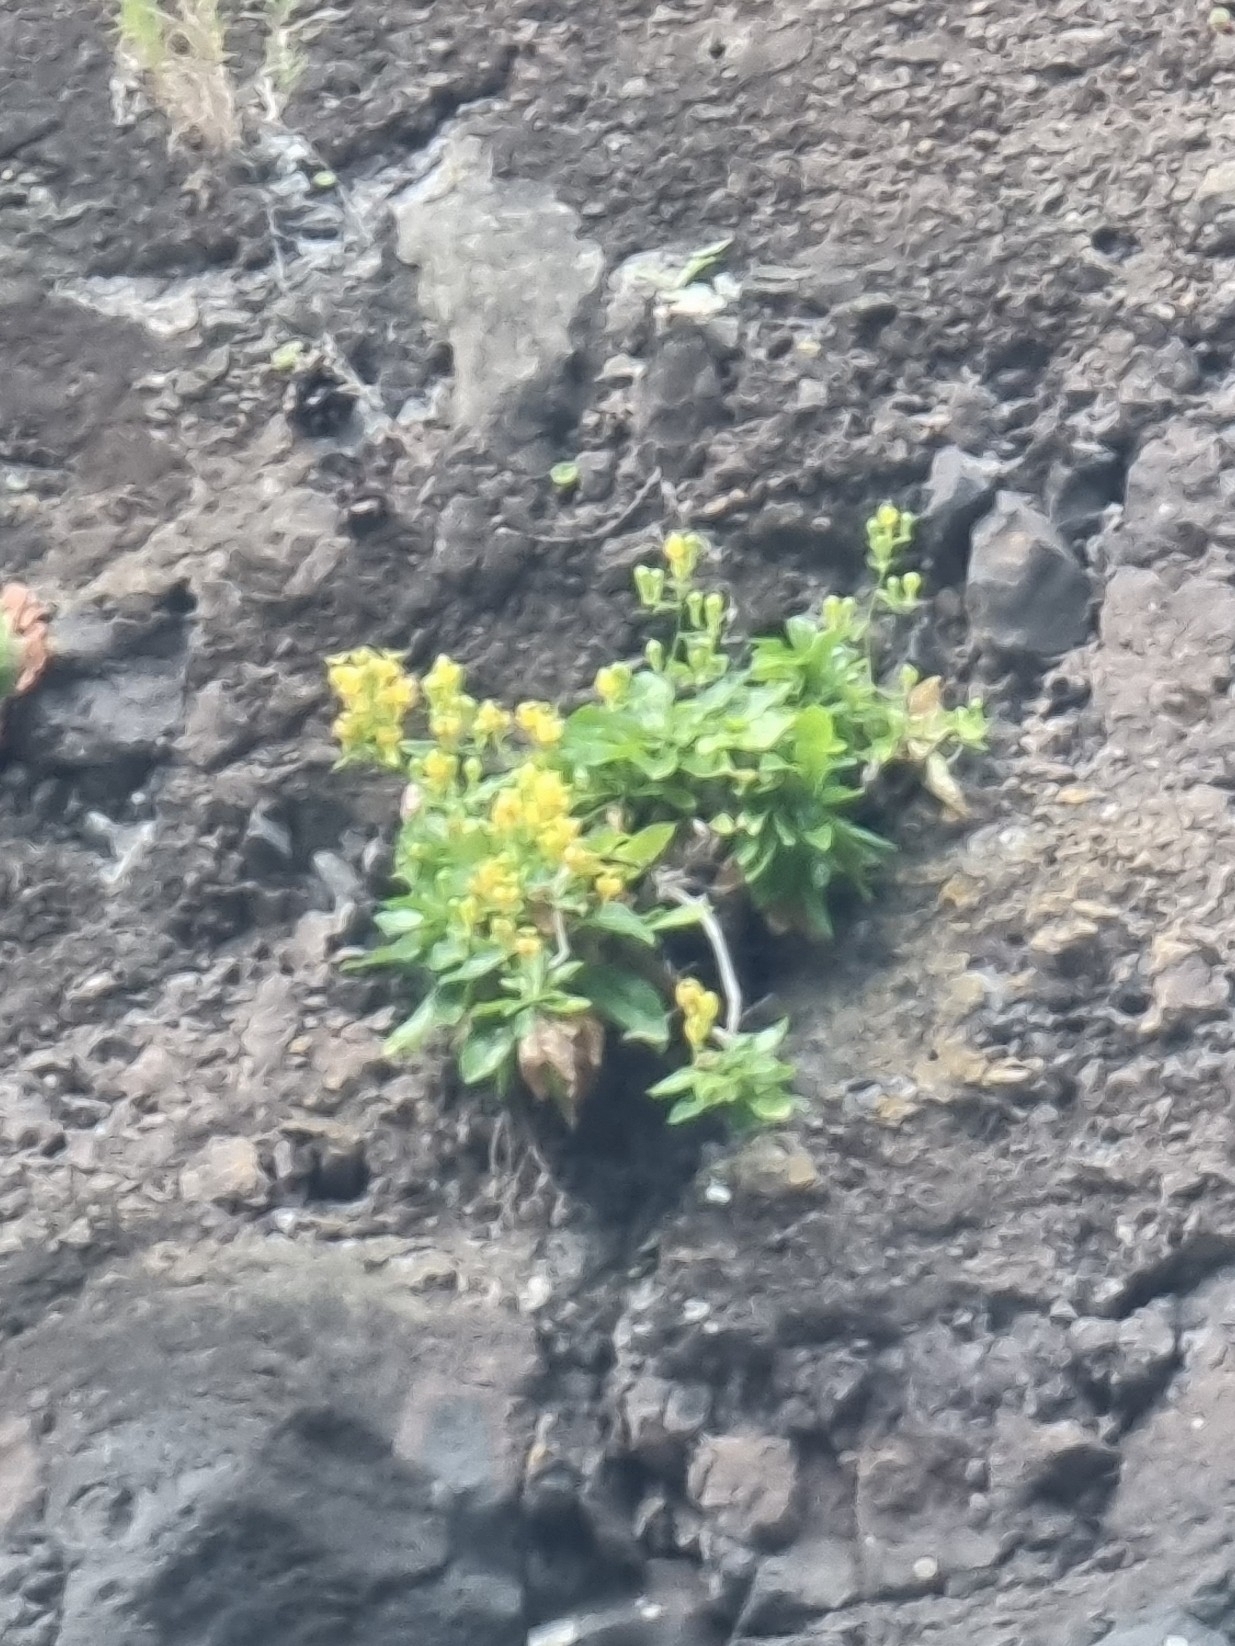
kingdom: Plantae
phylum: Tracheophyta
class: Magnoliopsida
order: Asterales
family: Campanulaceae
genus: Musschia
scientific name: Musschia aurea
